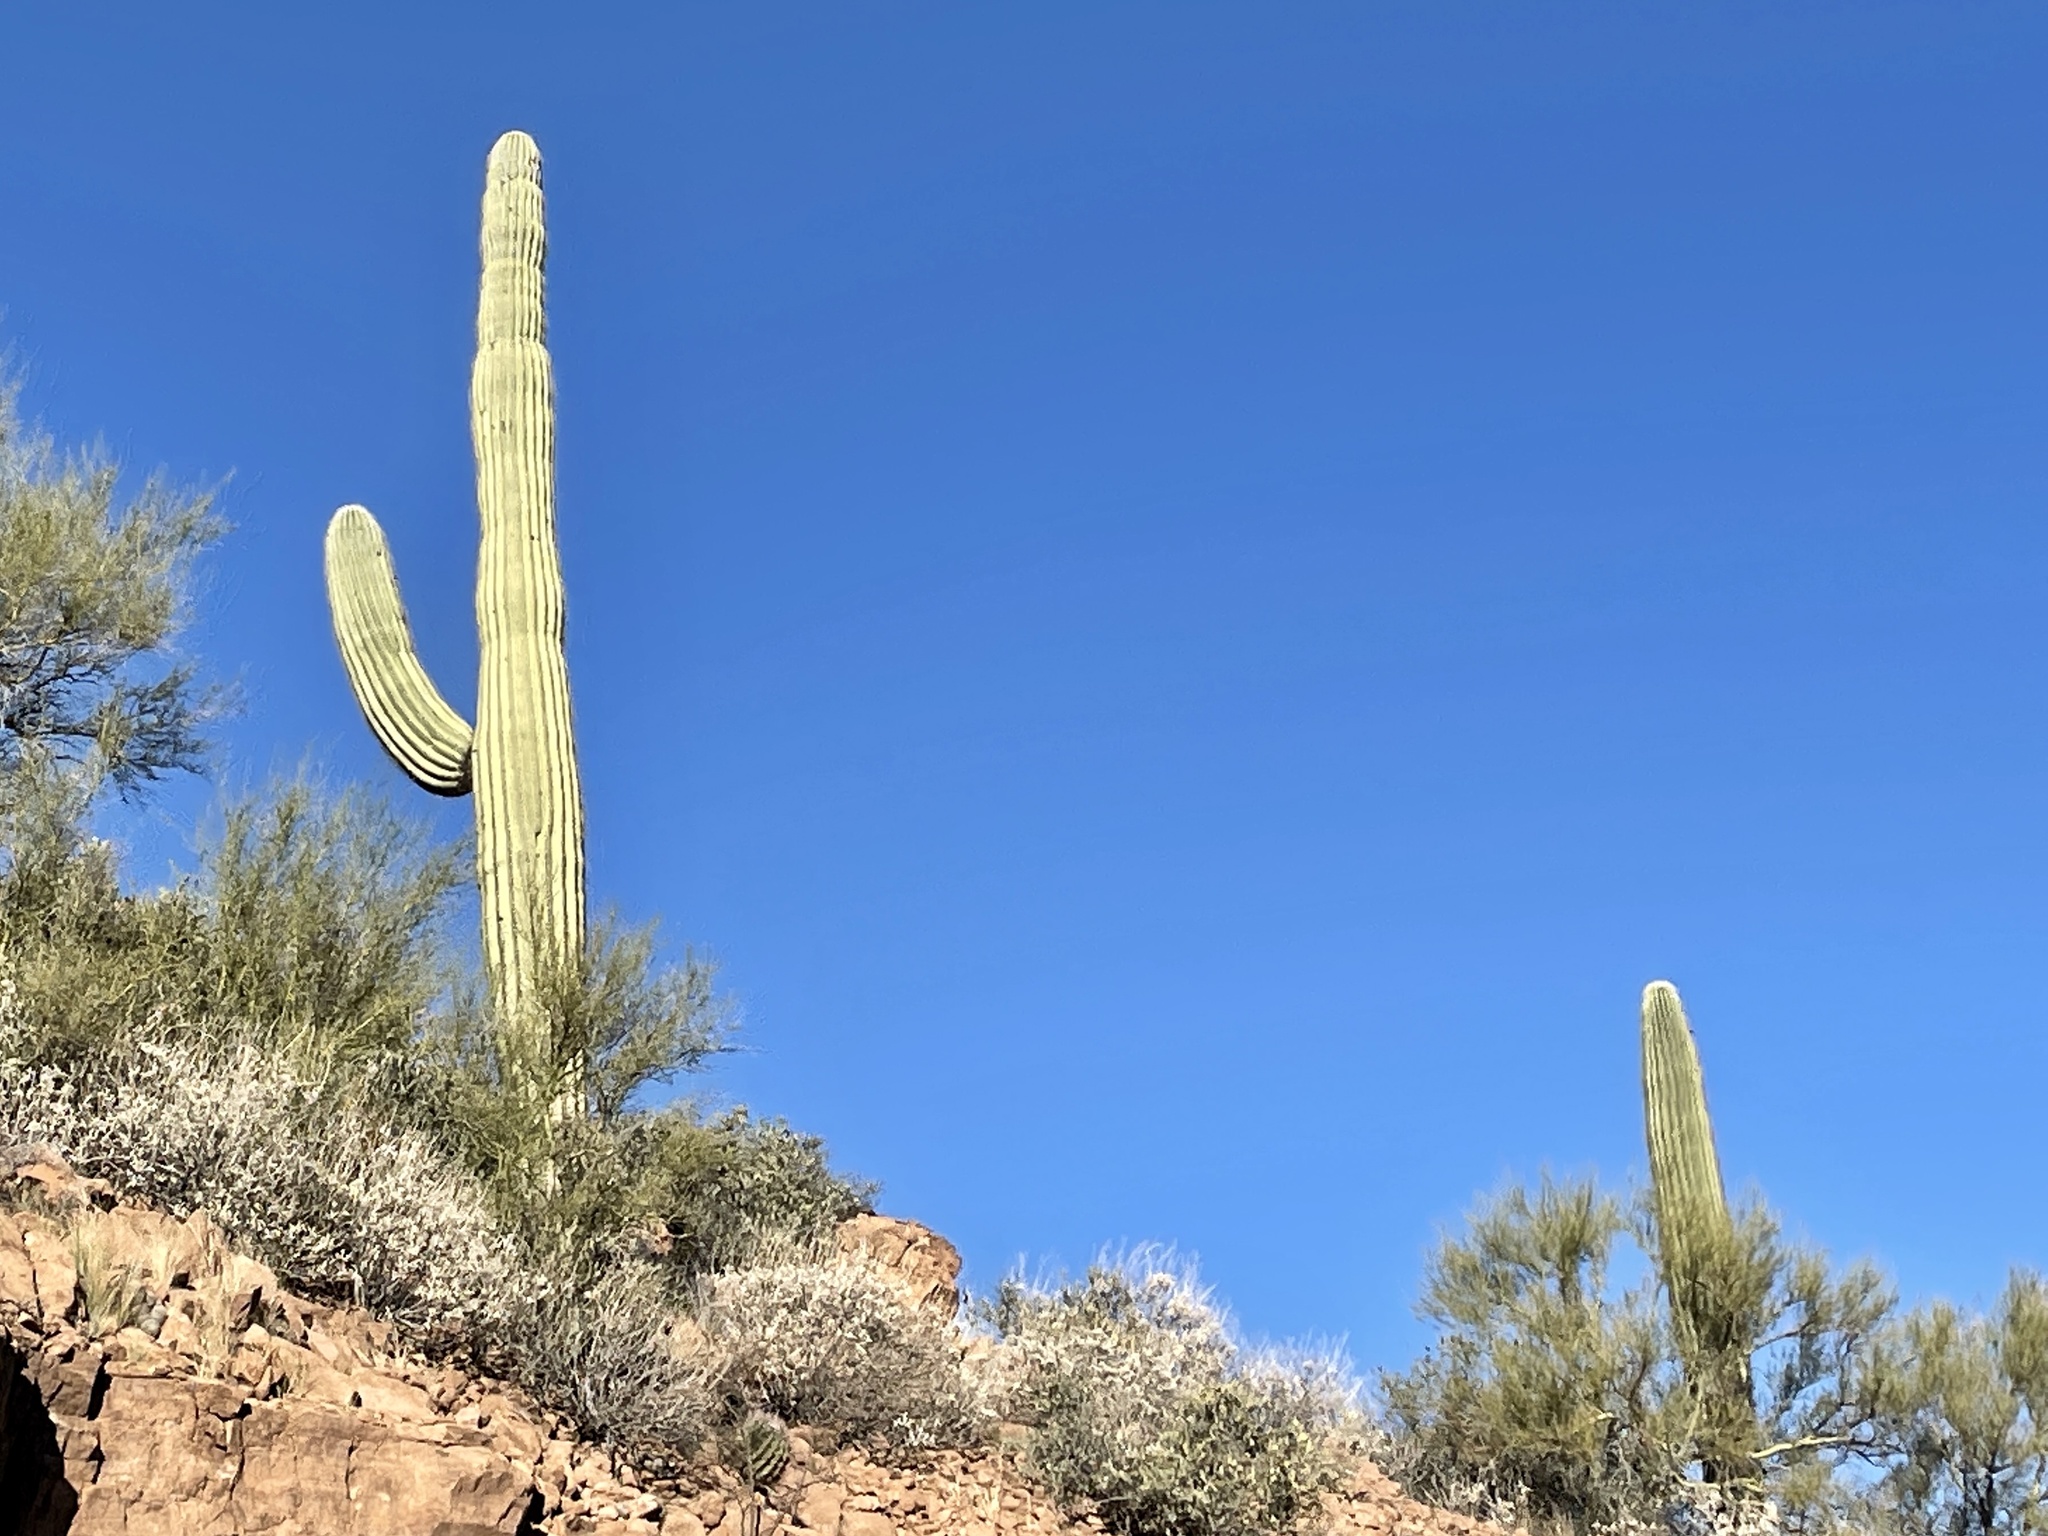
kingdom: Plantae
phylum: Tracheophyta
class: Magnoliopsida
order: Caryophyllales
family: Cactaceae
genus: Carnegiea
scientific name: Carnegiea gigantea
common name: Saguaro
